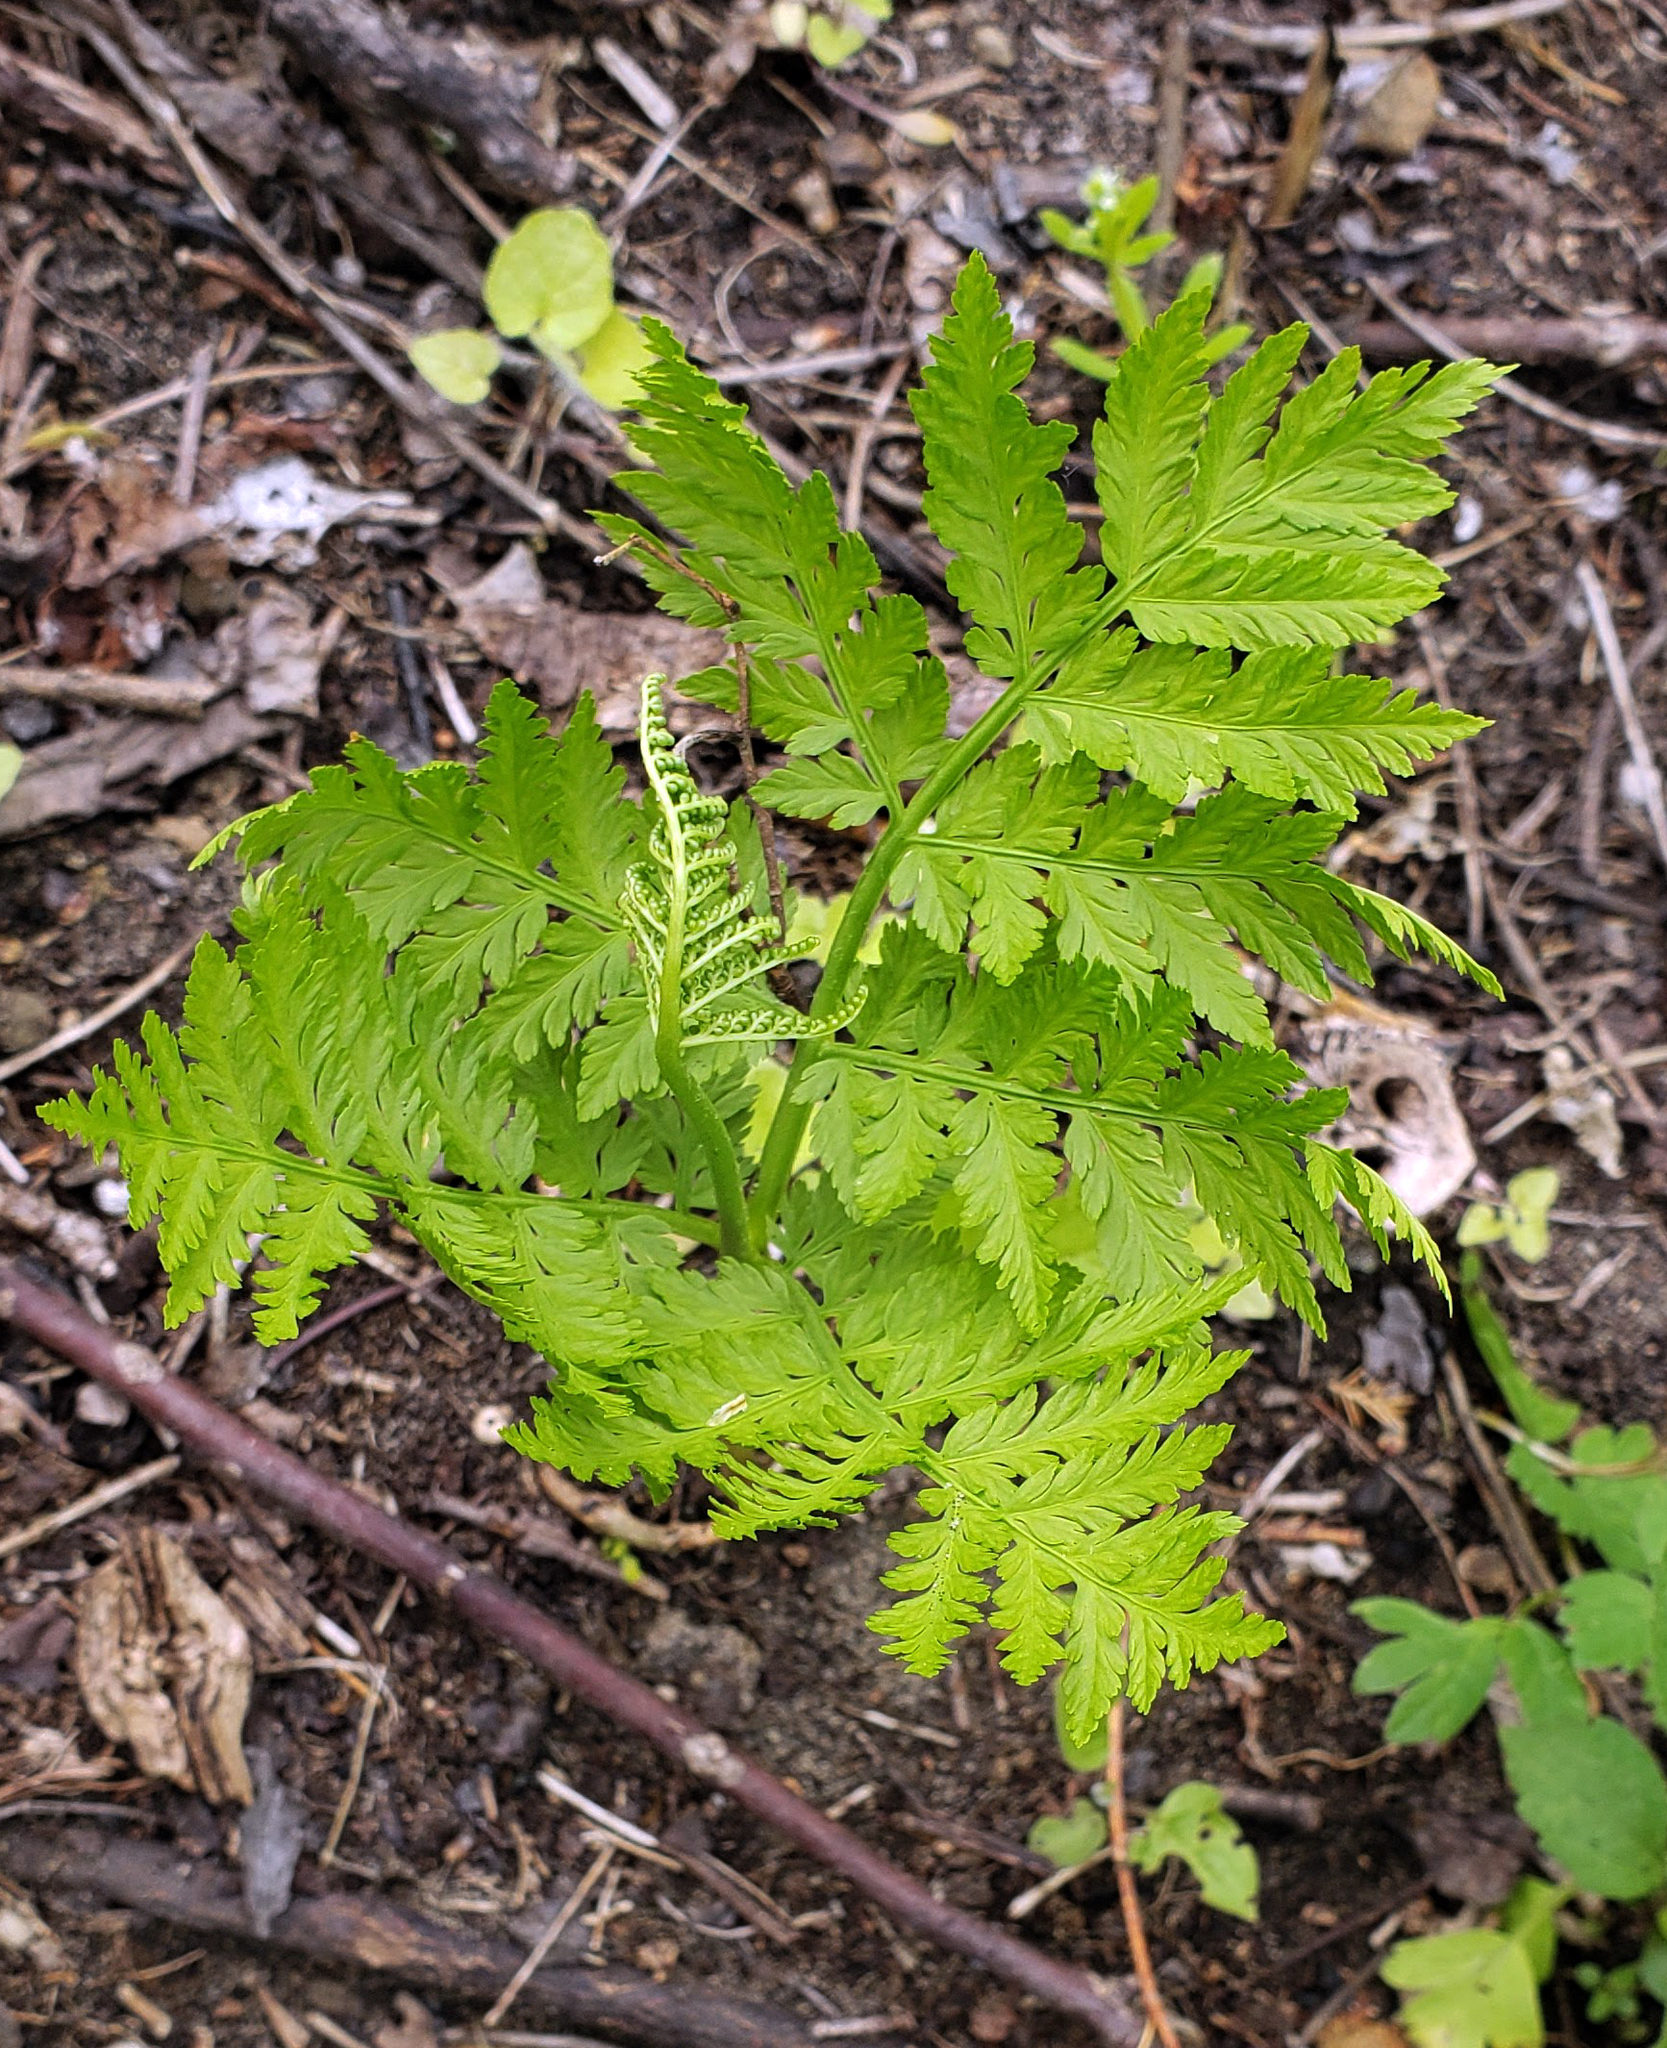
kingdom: Plantae
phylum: Tracheophyta
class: Polypodiopsida
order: Ophioglossales
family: Ophioglossaceae
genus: Botrypus
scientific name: Botrypus virginianus
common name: Common grapefern
